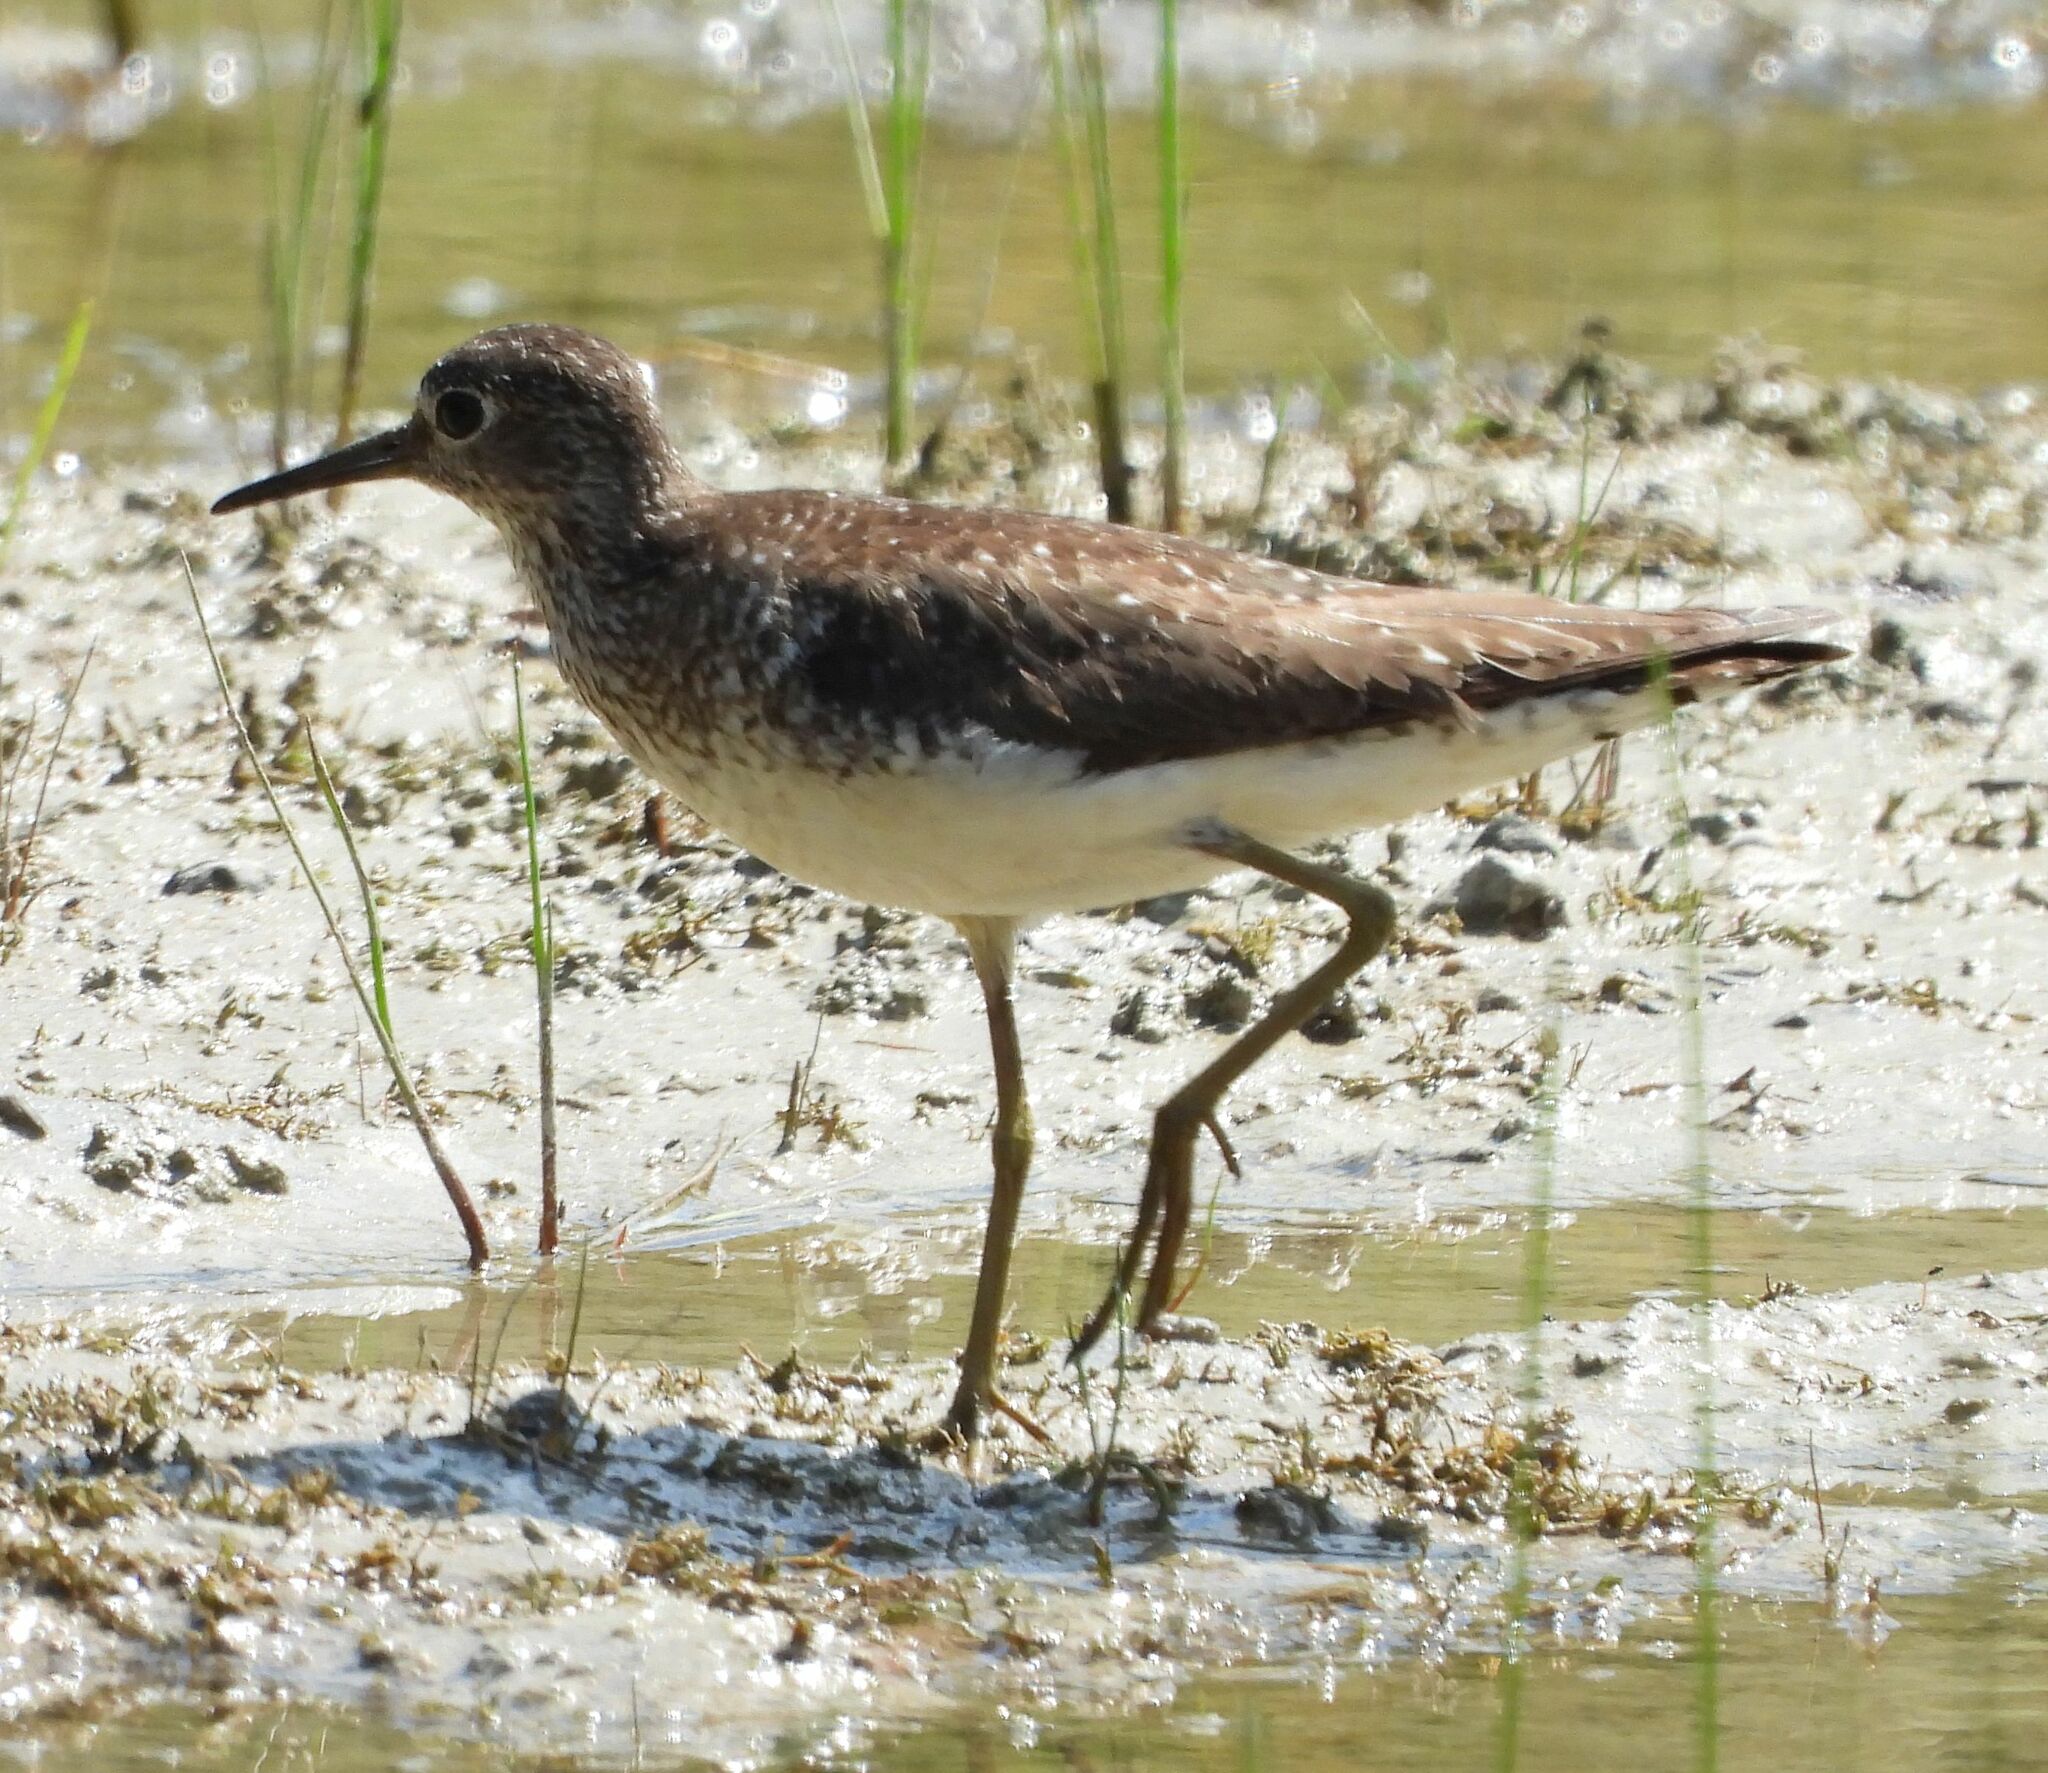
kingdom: Animalia
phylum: Chordata
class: Aves
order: Charadriiformes
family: Scolopacidae
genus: Tringa
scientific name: Tringa solitaria
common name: Solitary sandpiper
